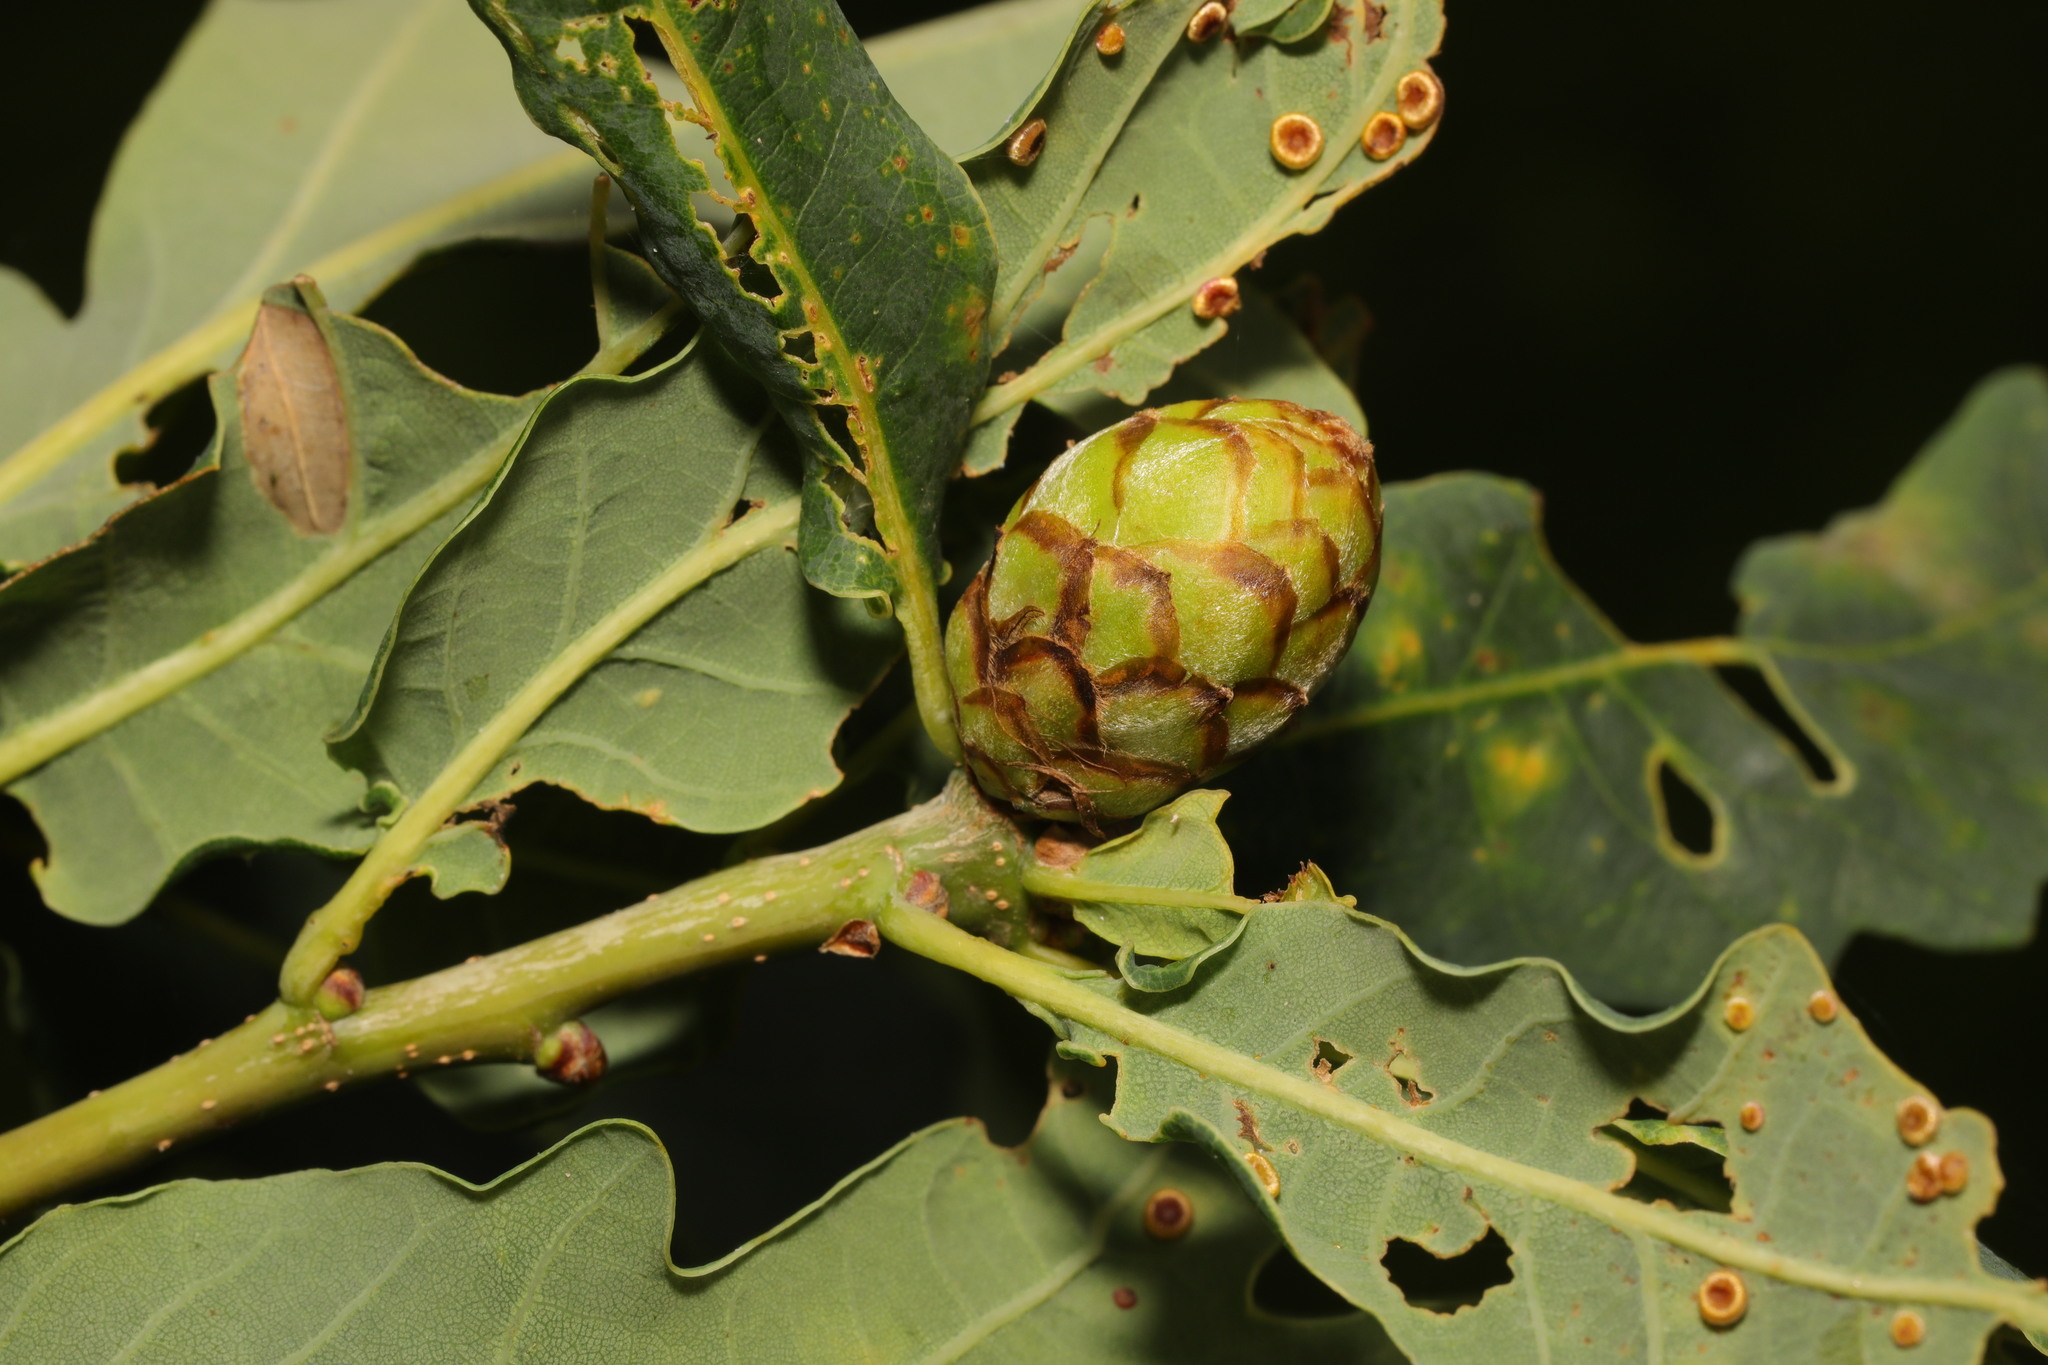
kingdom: Animalia
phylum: Arthropoda
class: Insecta
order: Hymenoptera
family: Cynipidae
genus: Andricus
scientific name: Andricus foecundatrix
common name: Artichoke gall
